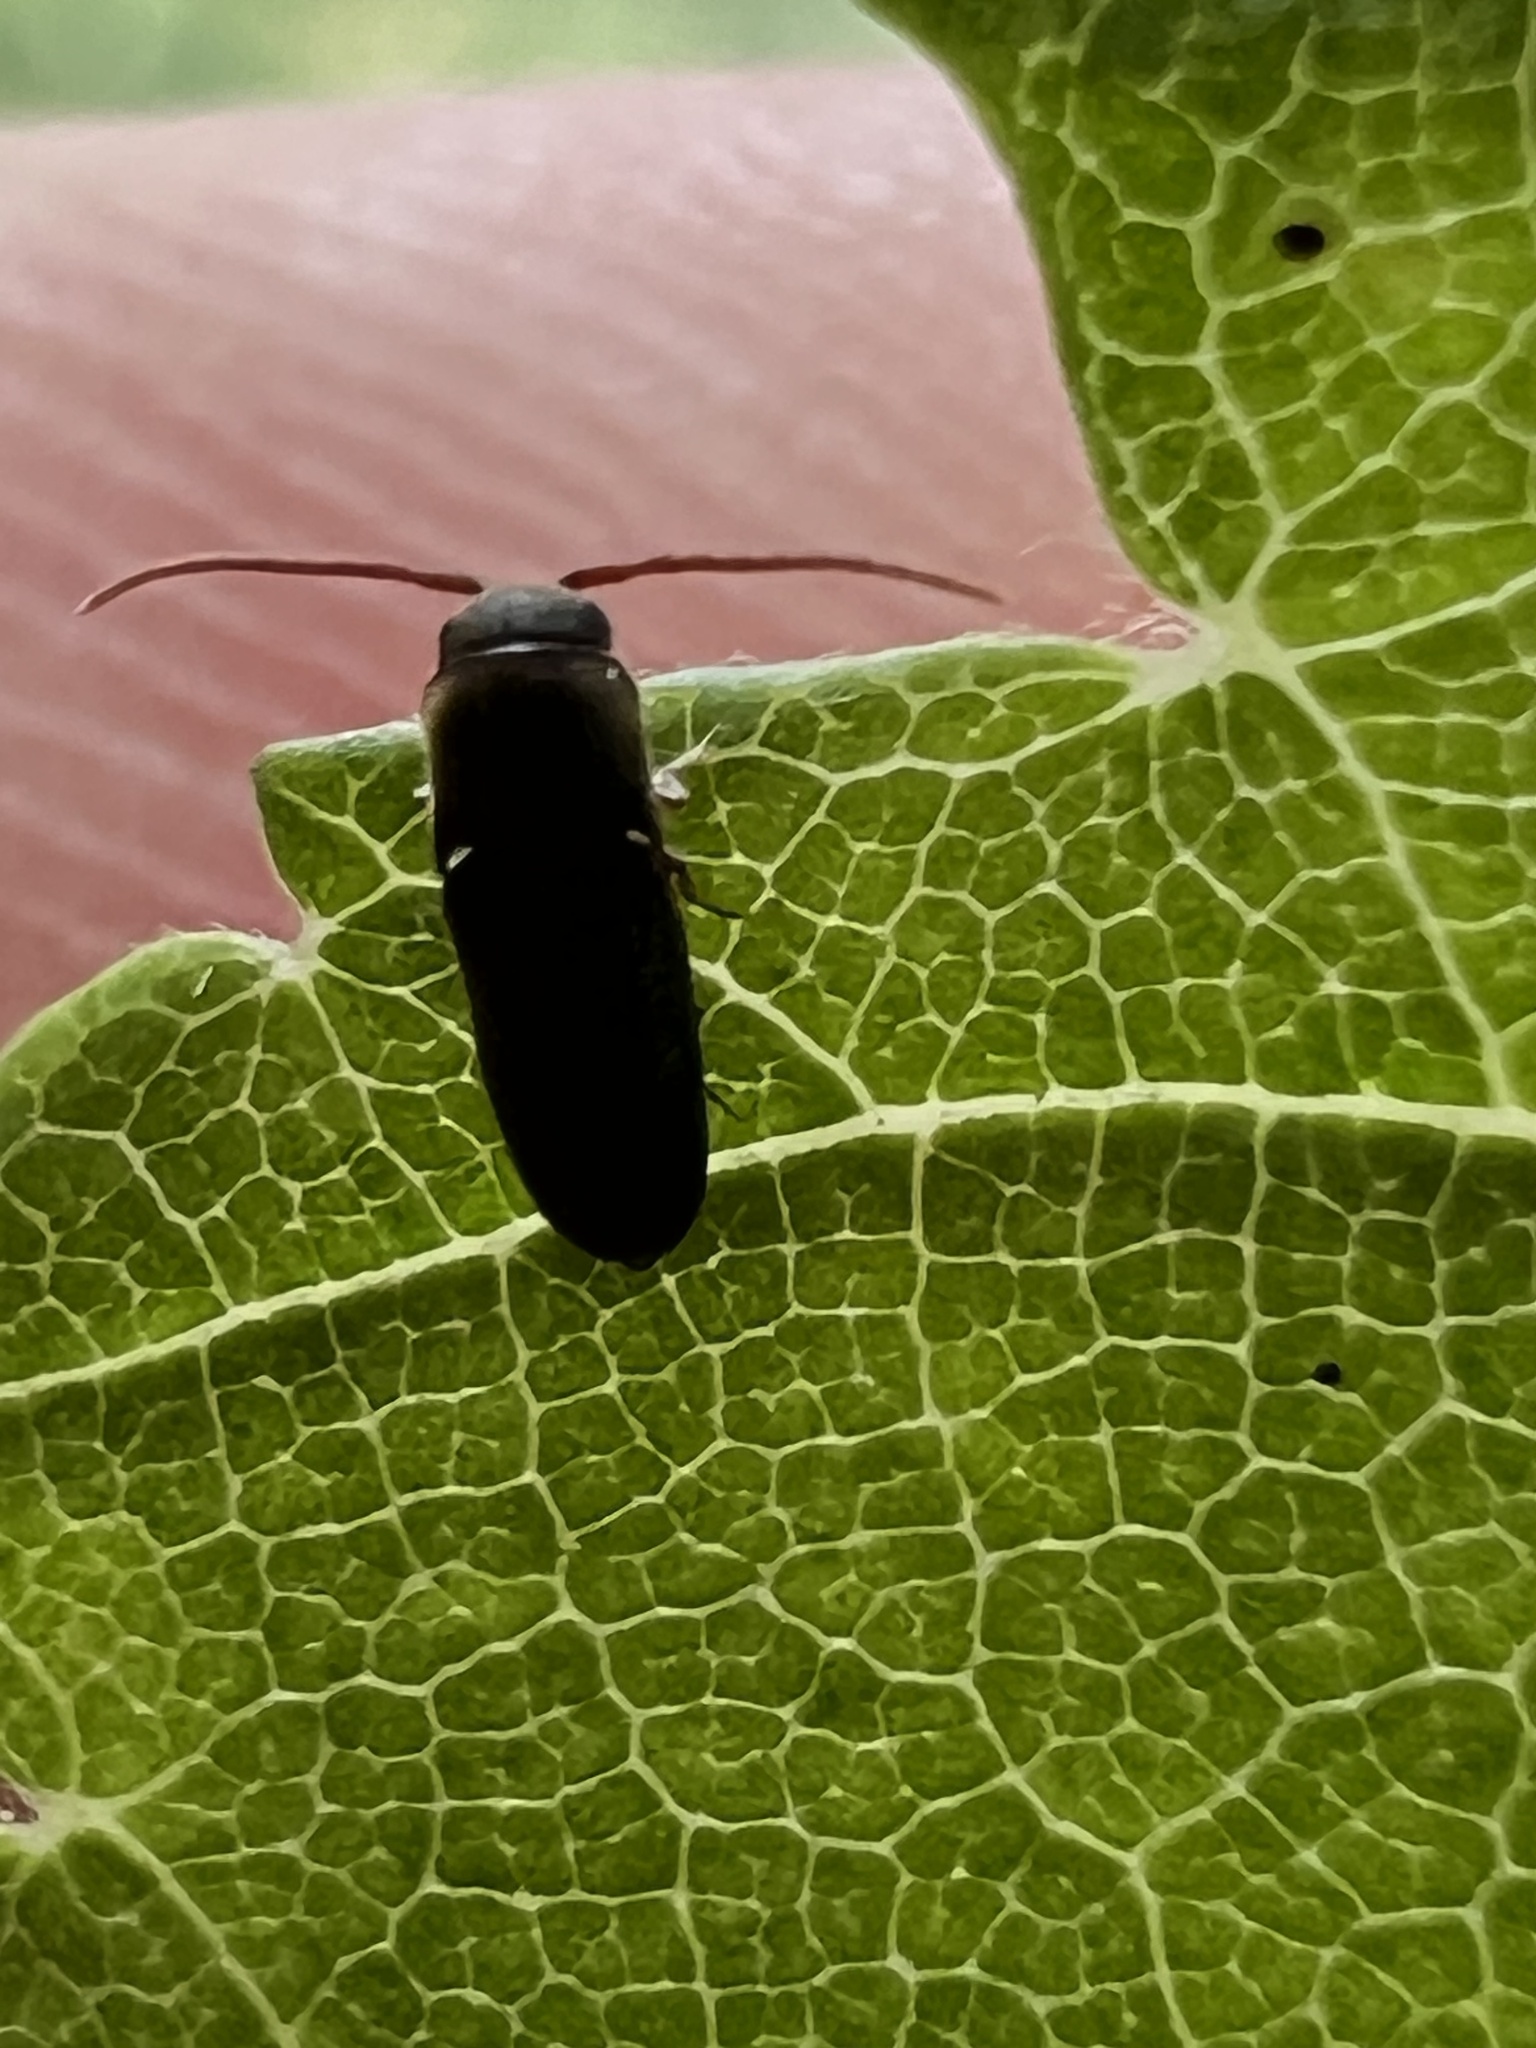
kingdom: Animalia
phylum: Arthropoda
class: Insecta
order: Coleoptera
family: Eucnemidae
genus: Rhagomicrus
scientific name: Rhagomicrus humeralis
